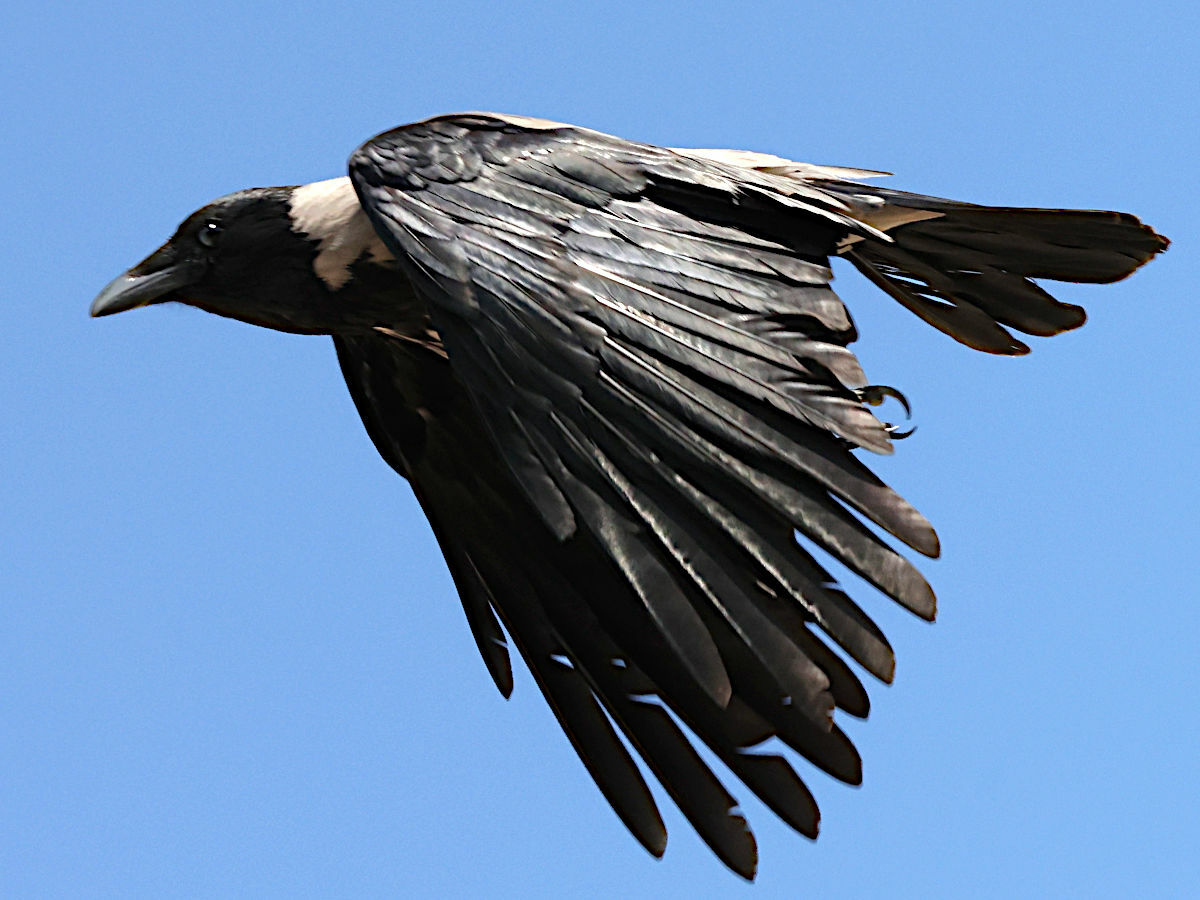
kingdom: Animalia
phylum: Chordata
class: Aves
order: Passeriformes
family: Corvidae
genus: Corvus
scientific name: Corvus cornix
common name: Hooded crow
